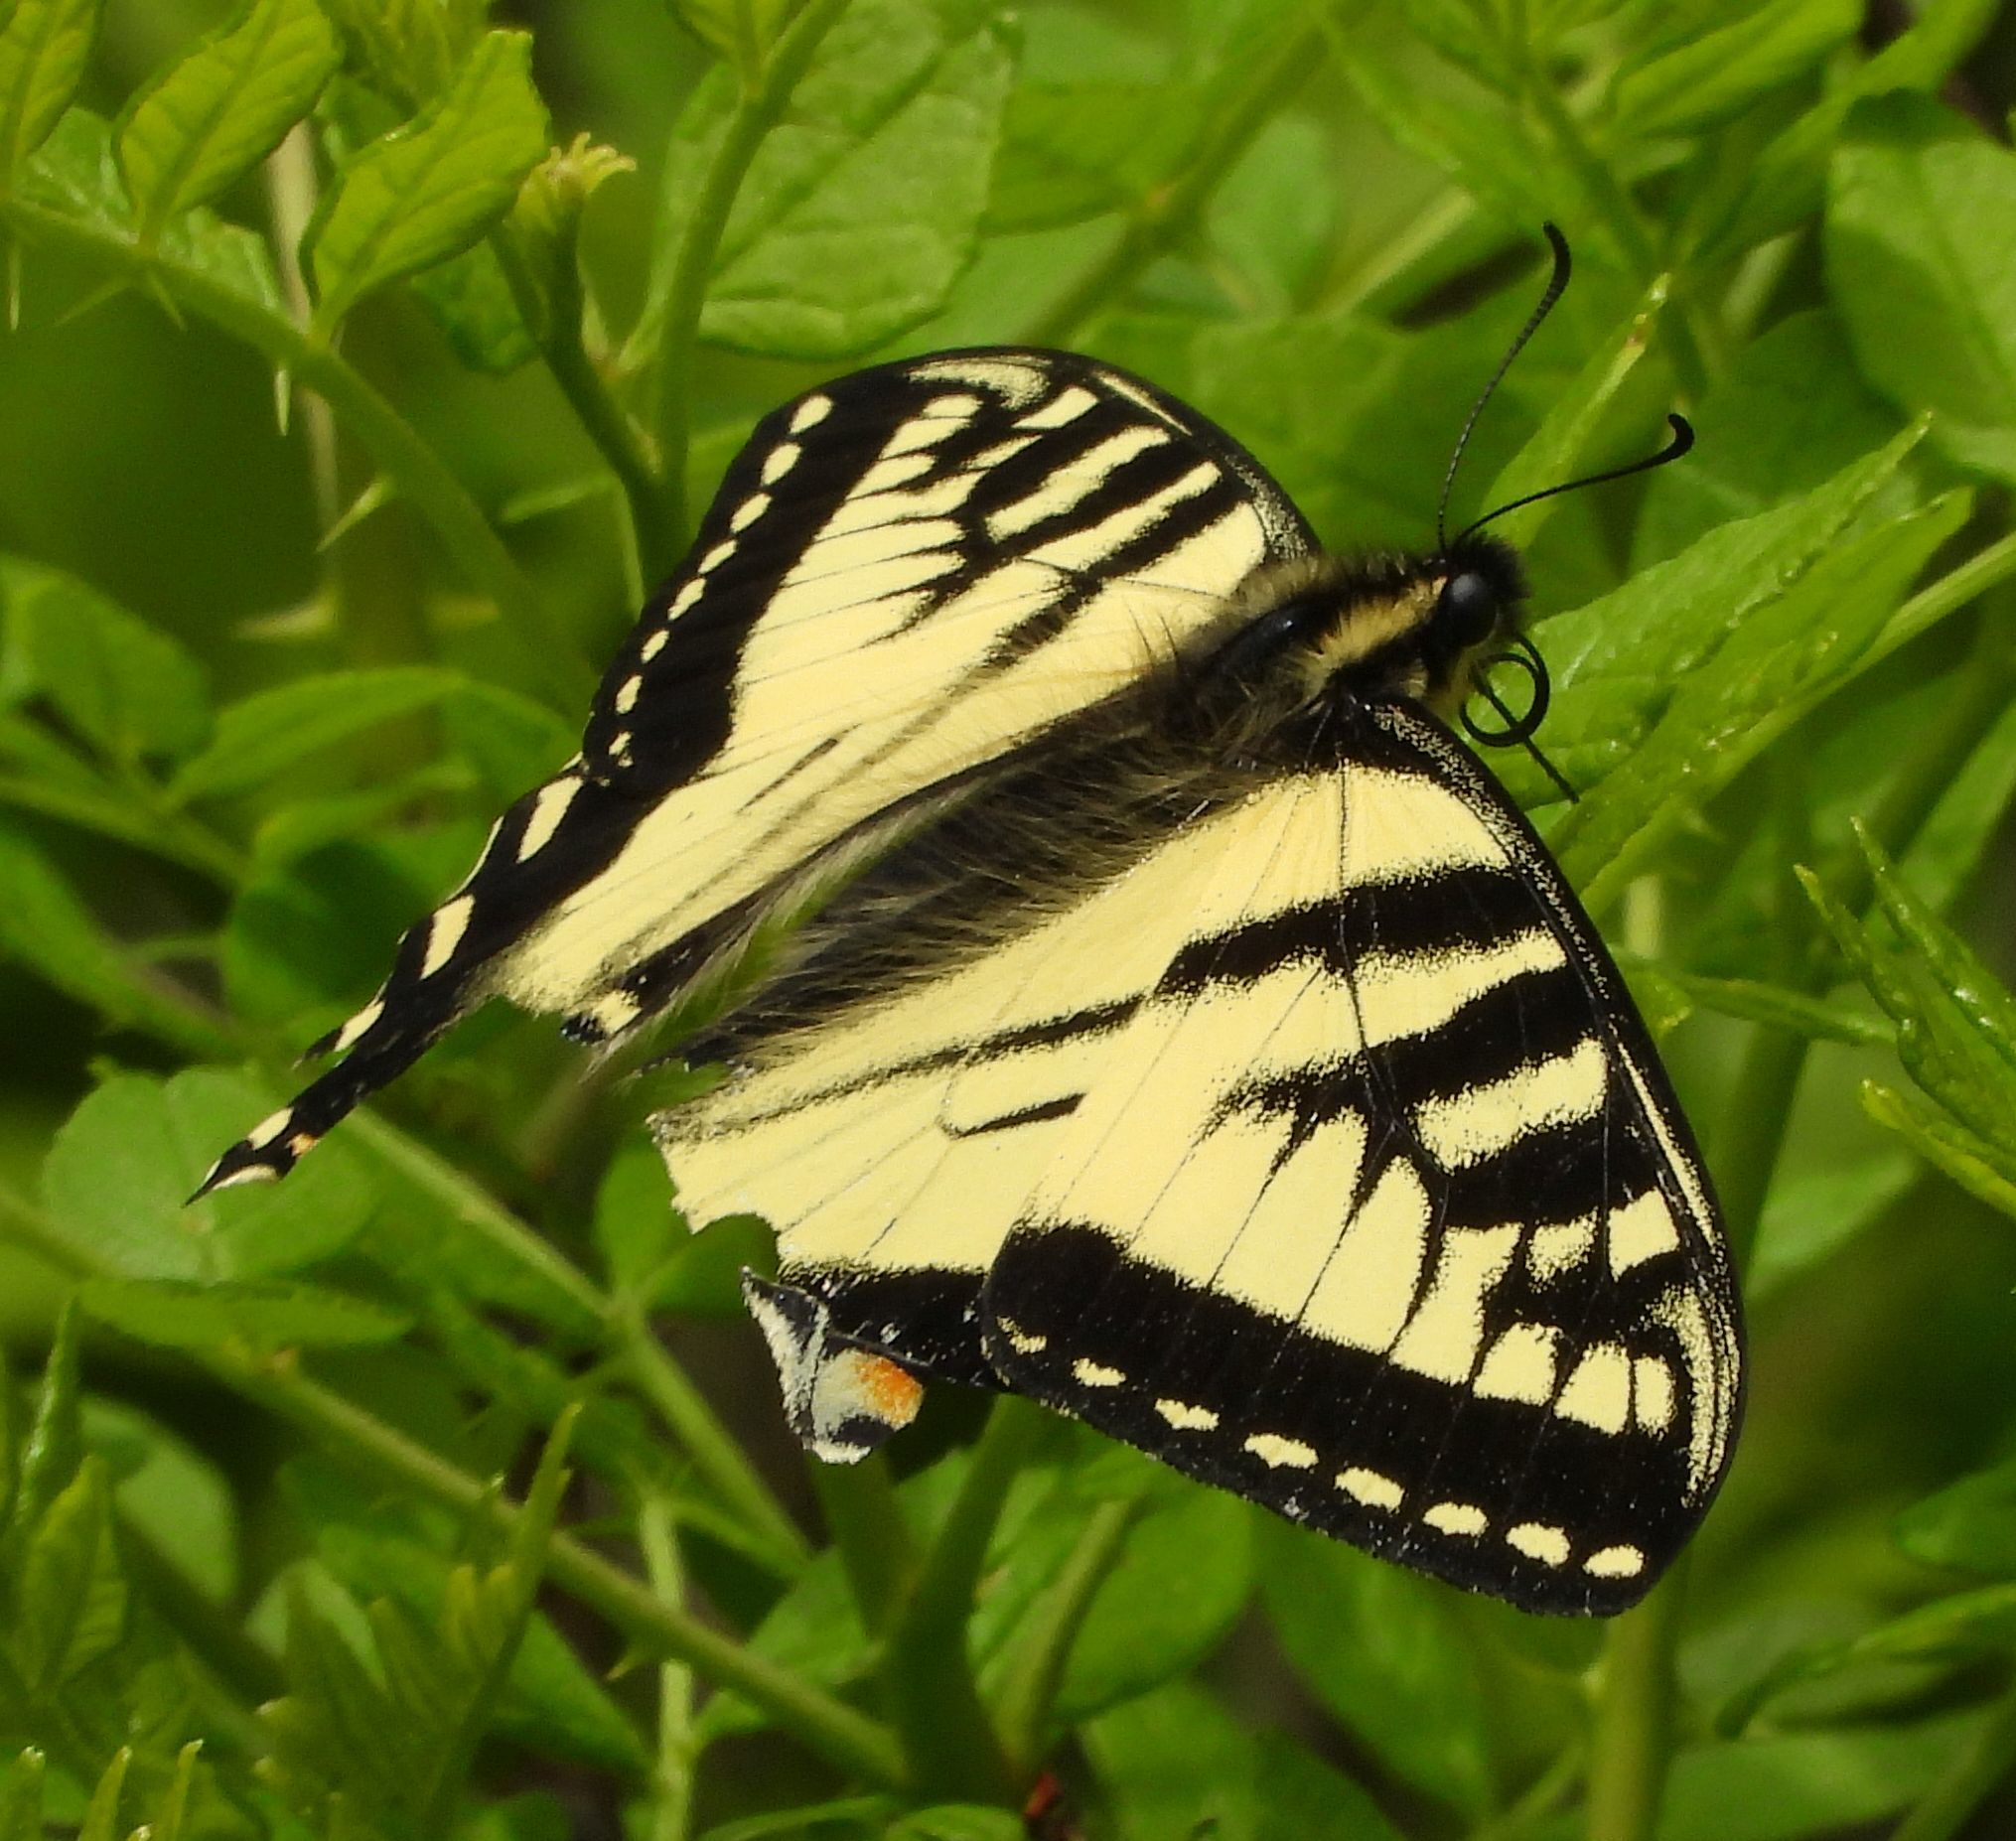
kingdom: Animalia
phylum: Arthropoda
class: Insecta
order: Lepidoptera
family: Papilionidae
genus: Papilio
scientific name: Papilio canadensis
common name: Canadian tiger swallowtail
